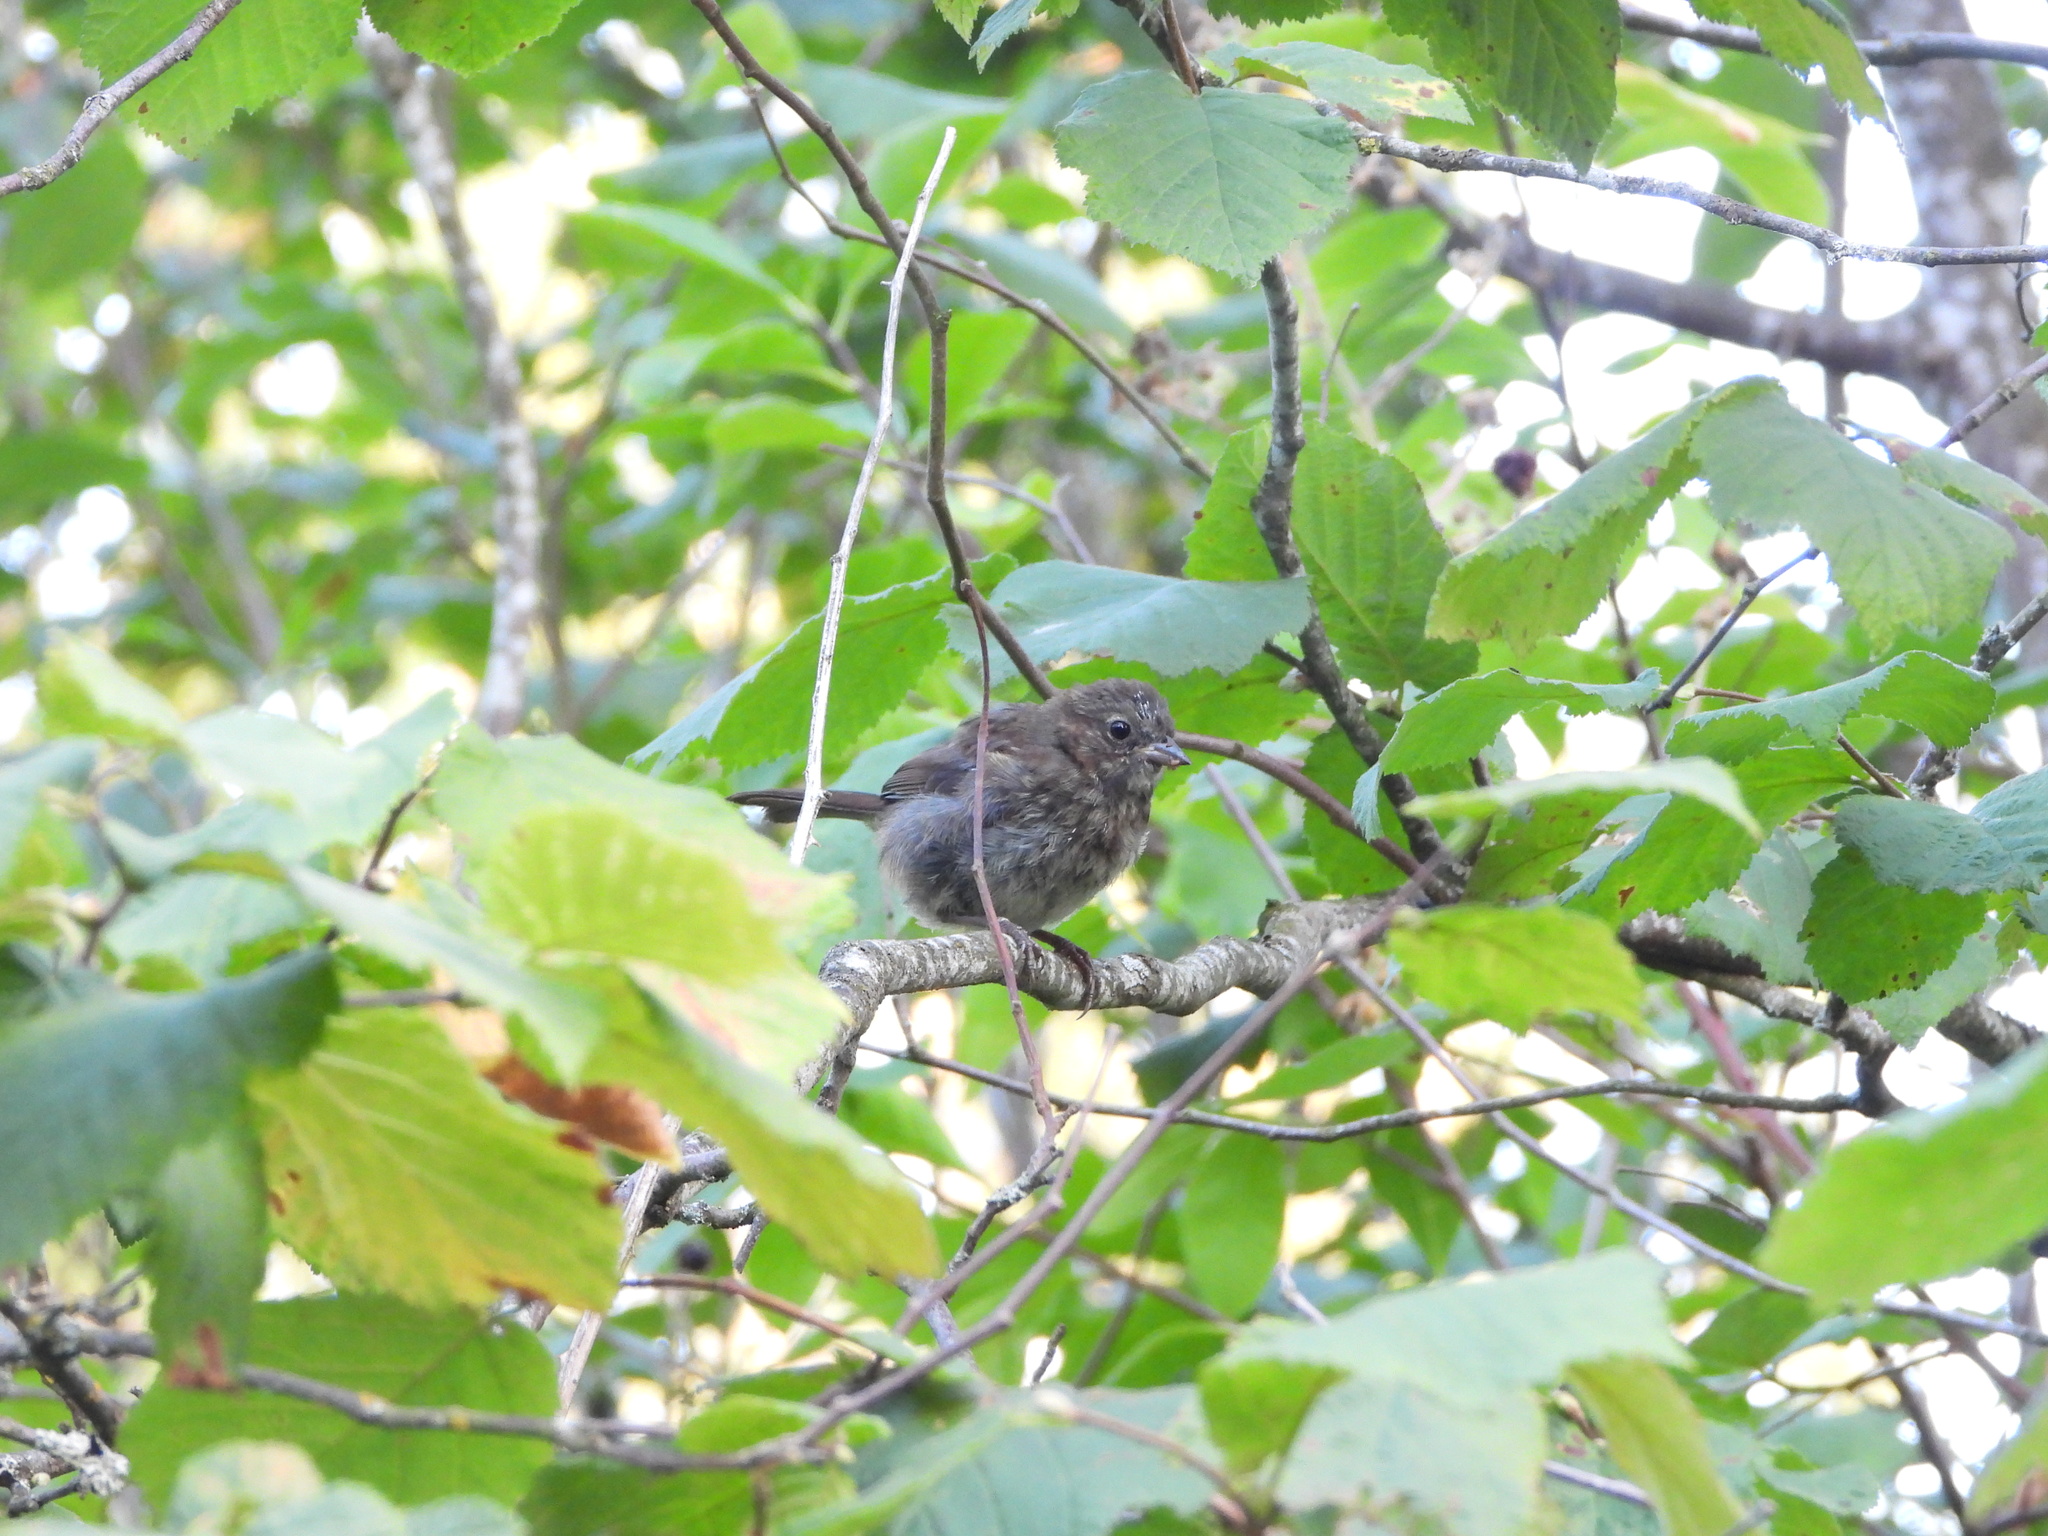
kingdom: Animalia
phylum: Chordata
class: Aves
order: Passeriformes
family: Passerellidae
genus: Melospiza
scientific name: Melospiza melodia
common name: Song sparrow
